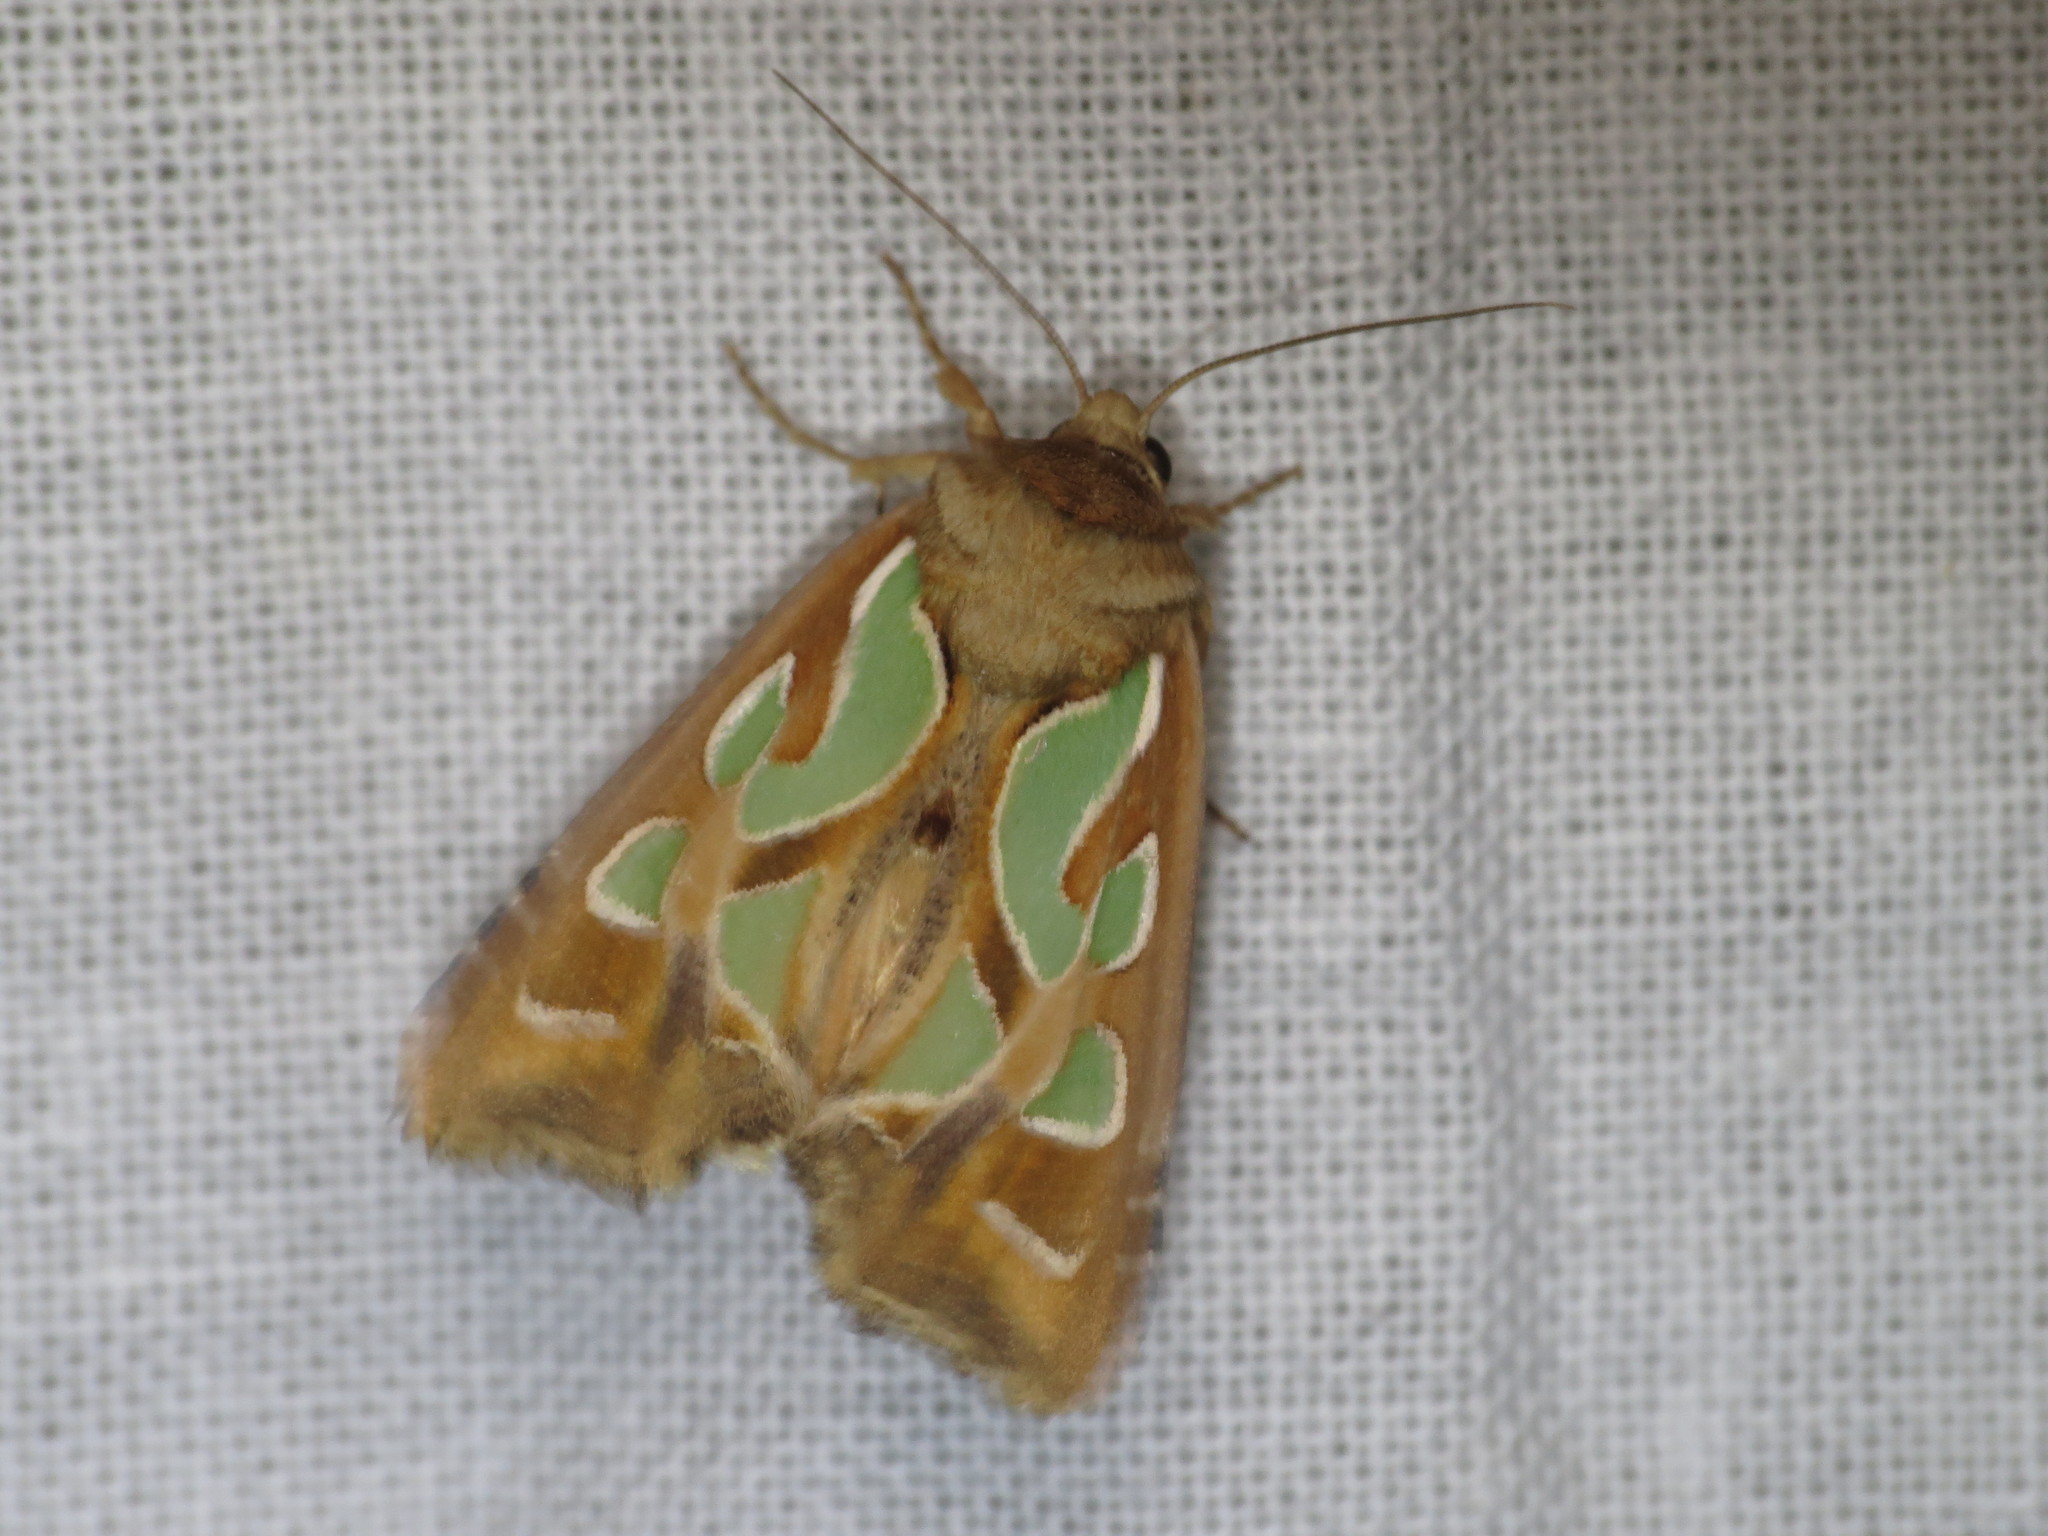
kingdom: Animalia
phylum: Arthropoda
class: Insecta
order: Lepidoptera
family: Noctuidae
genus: Cosmodes
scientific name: Cosmodes elegans
